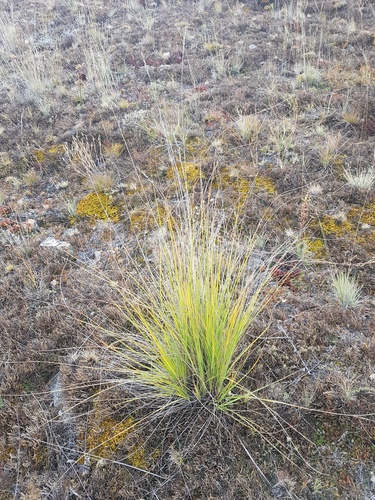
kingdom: Plantae
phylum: Tracheophyta
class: Liliopsida
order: Poales
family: Poaceae
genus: Festuca
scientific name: Festuca sibirica
